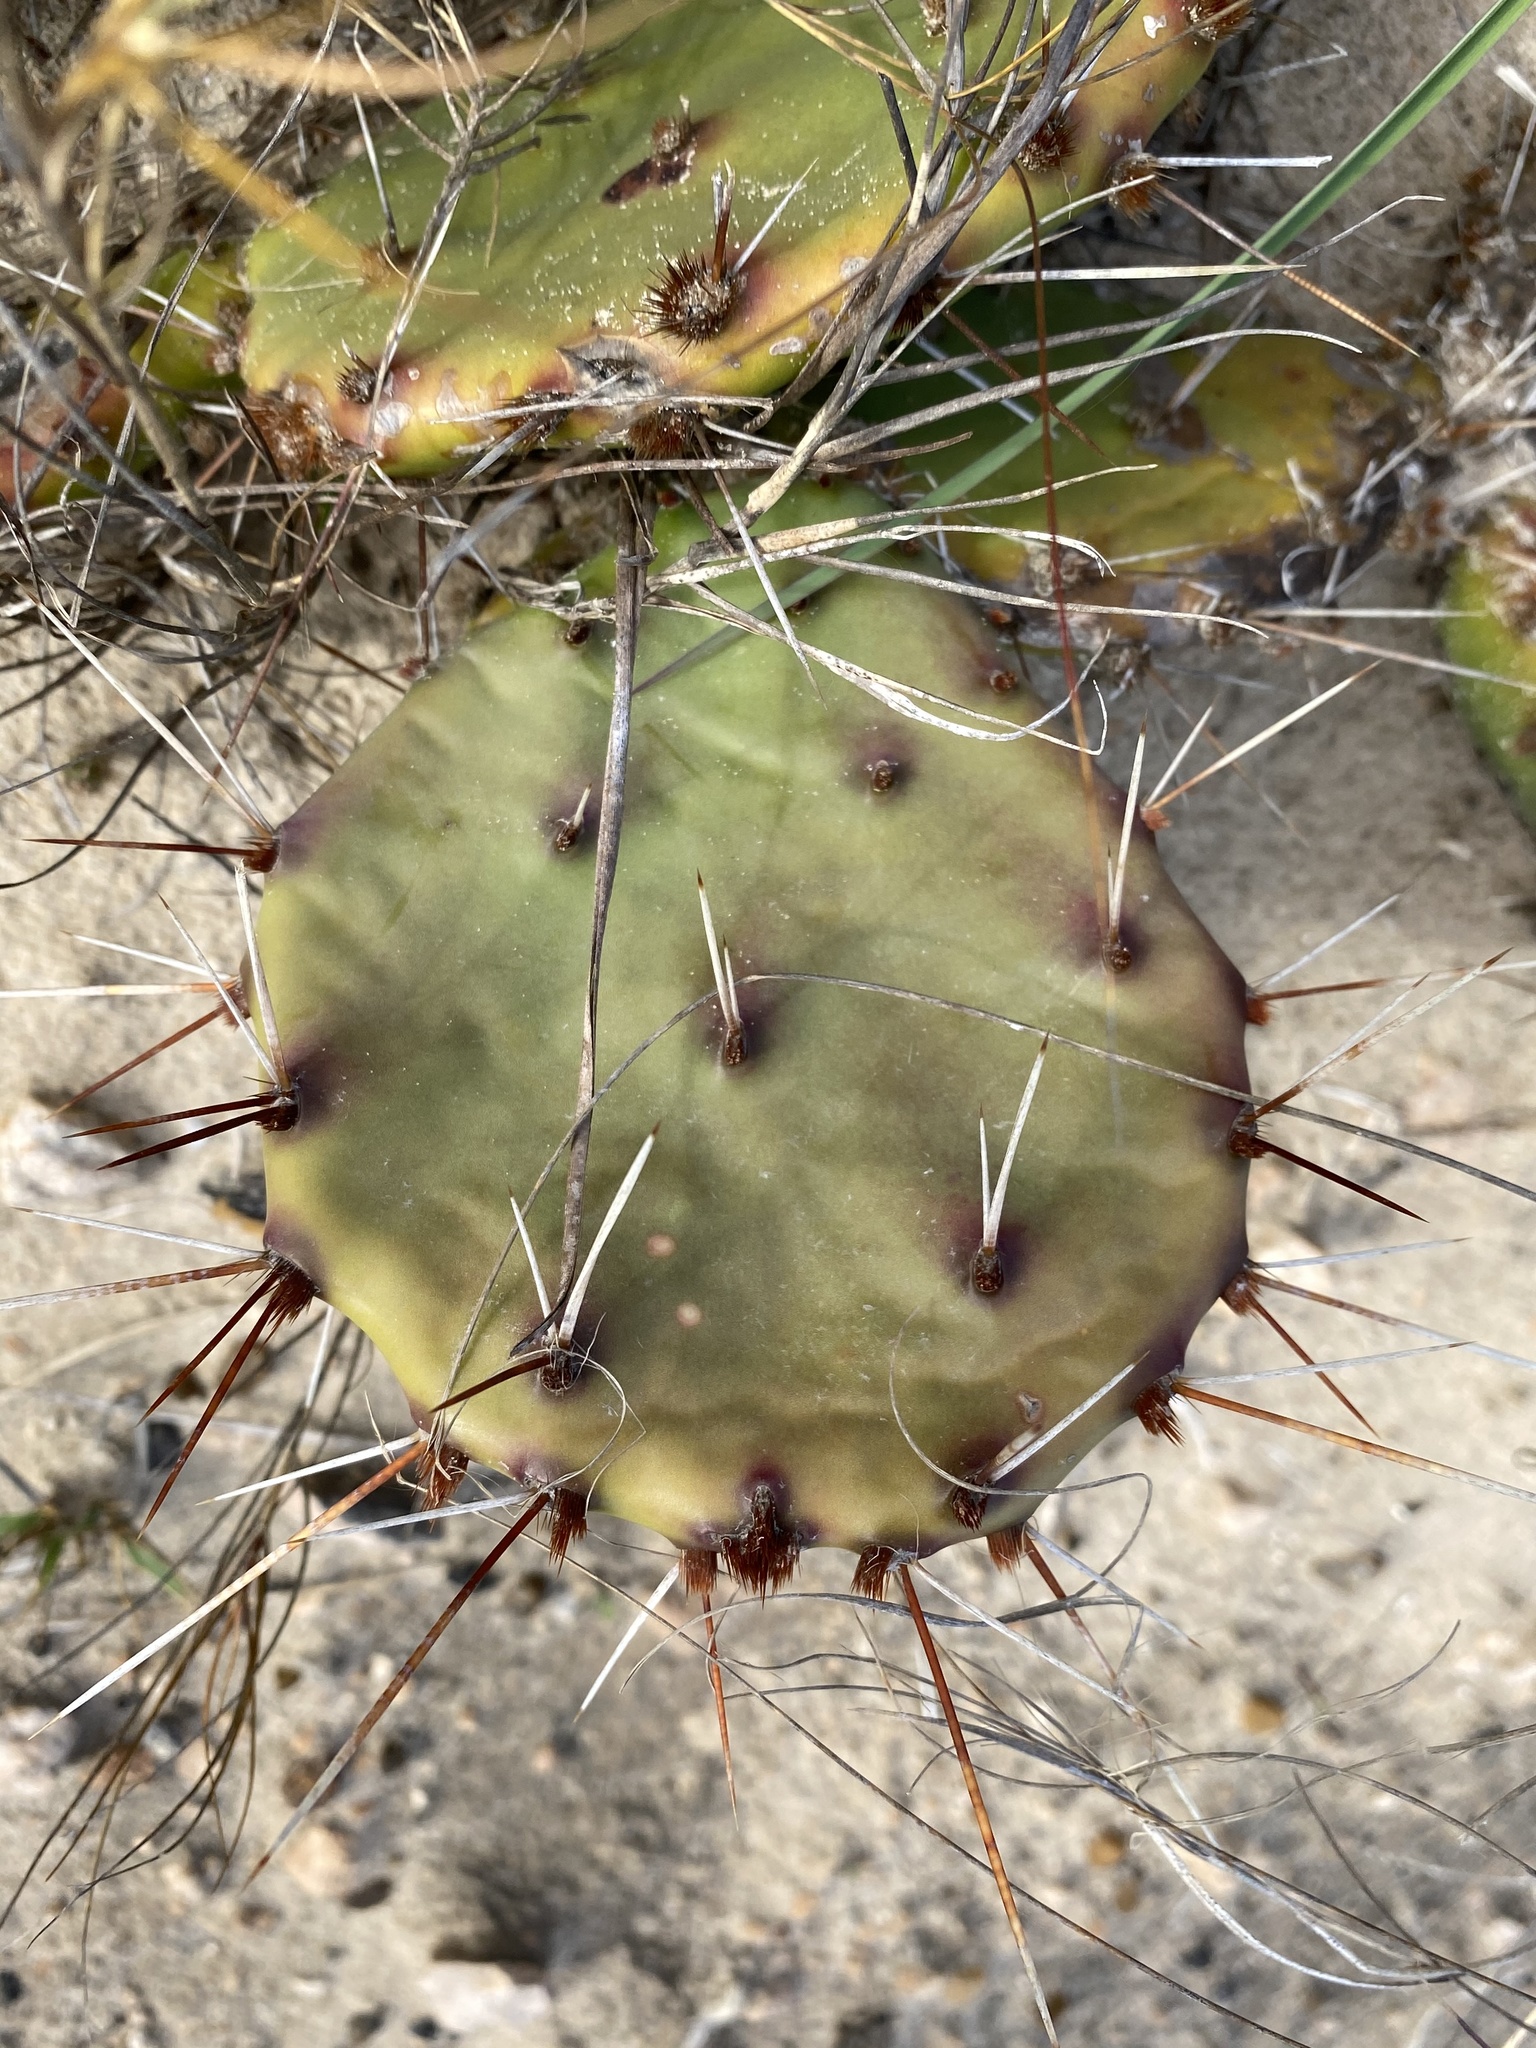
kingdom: Plantae
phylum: Tracheophyta
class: Magnoliopsida
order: Caryophyllales
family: Cactaceae
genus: Opuntia
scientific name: Opuntia humifusa
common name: Eastern prickly-pear
